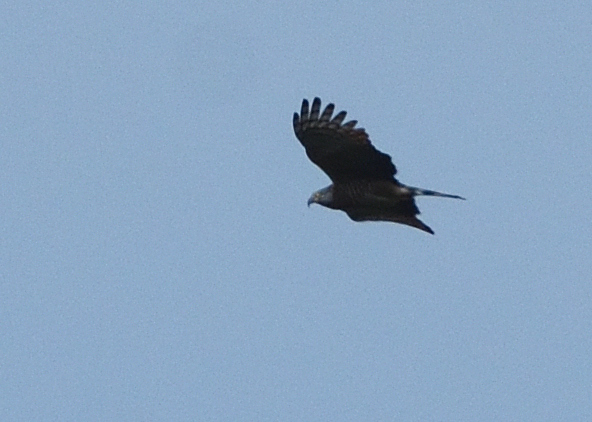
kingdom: Animalia
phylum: Chordata
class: Aves
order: Accipitriformes
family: Accipitridae
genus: Chondrohierax
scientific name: Chondrohierax uncinatus
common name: Hook-billed kite
